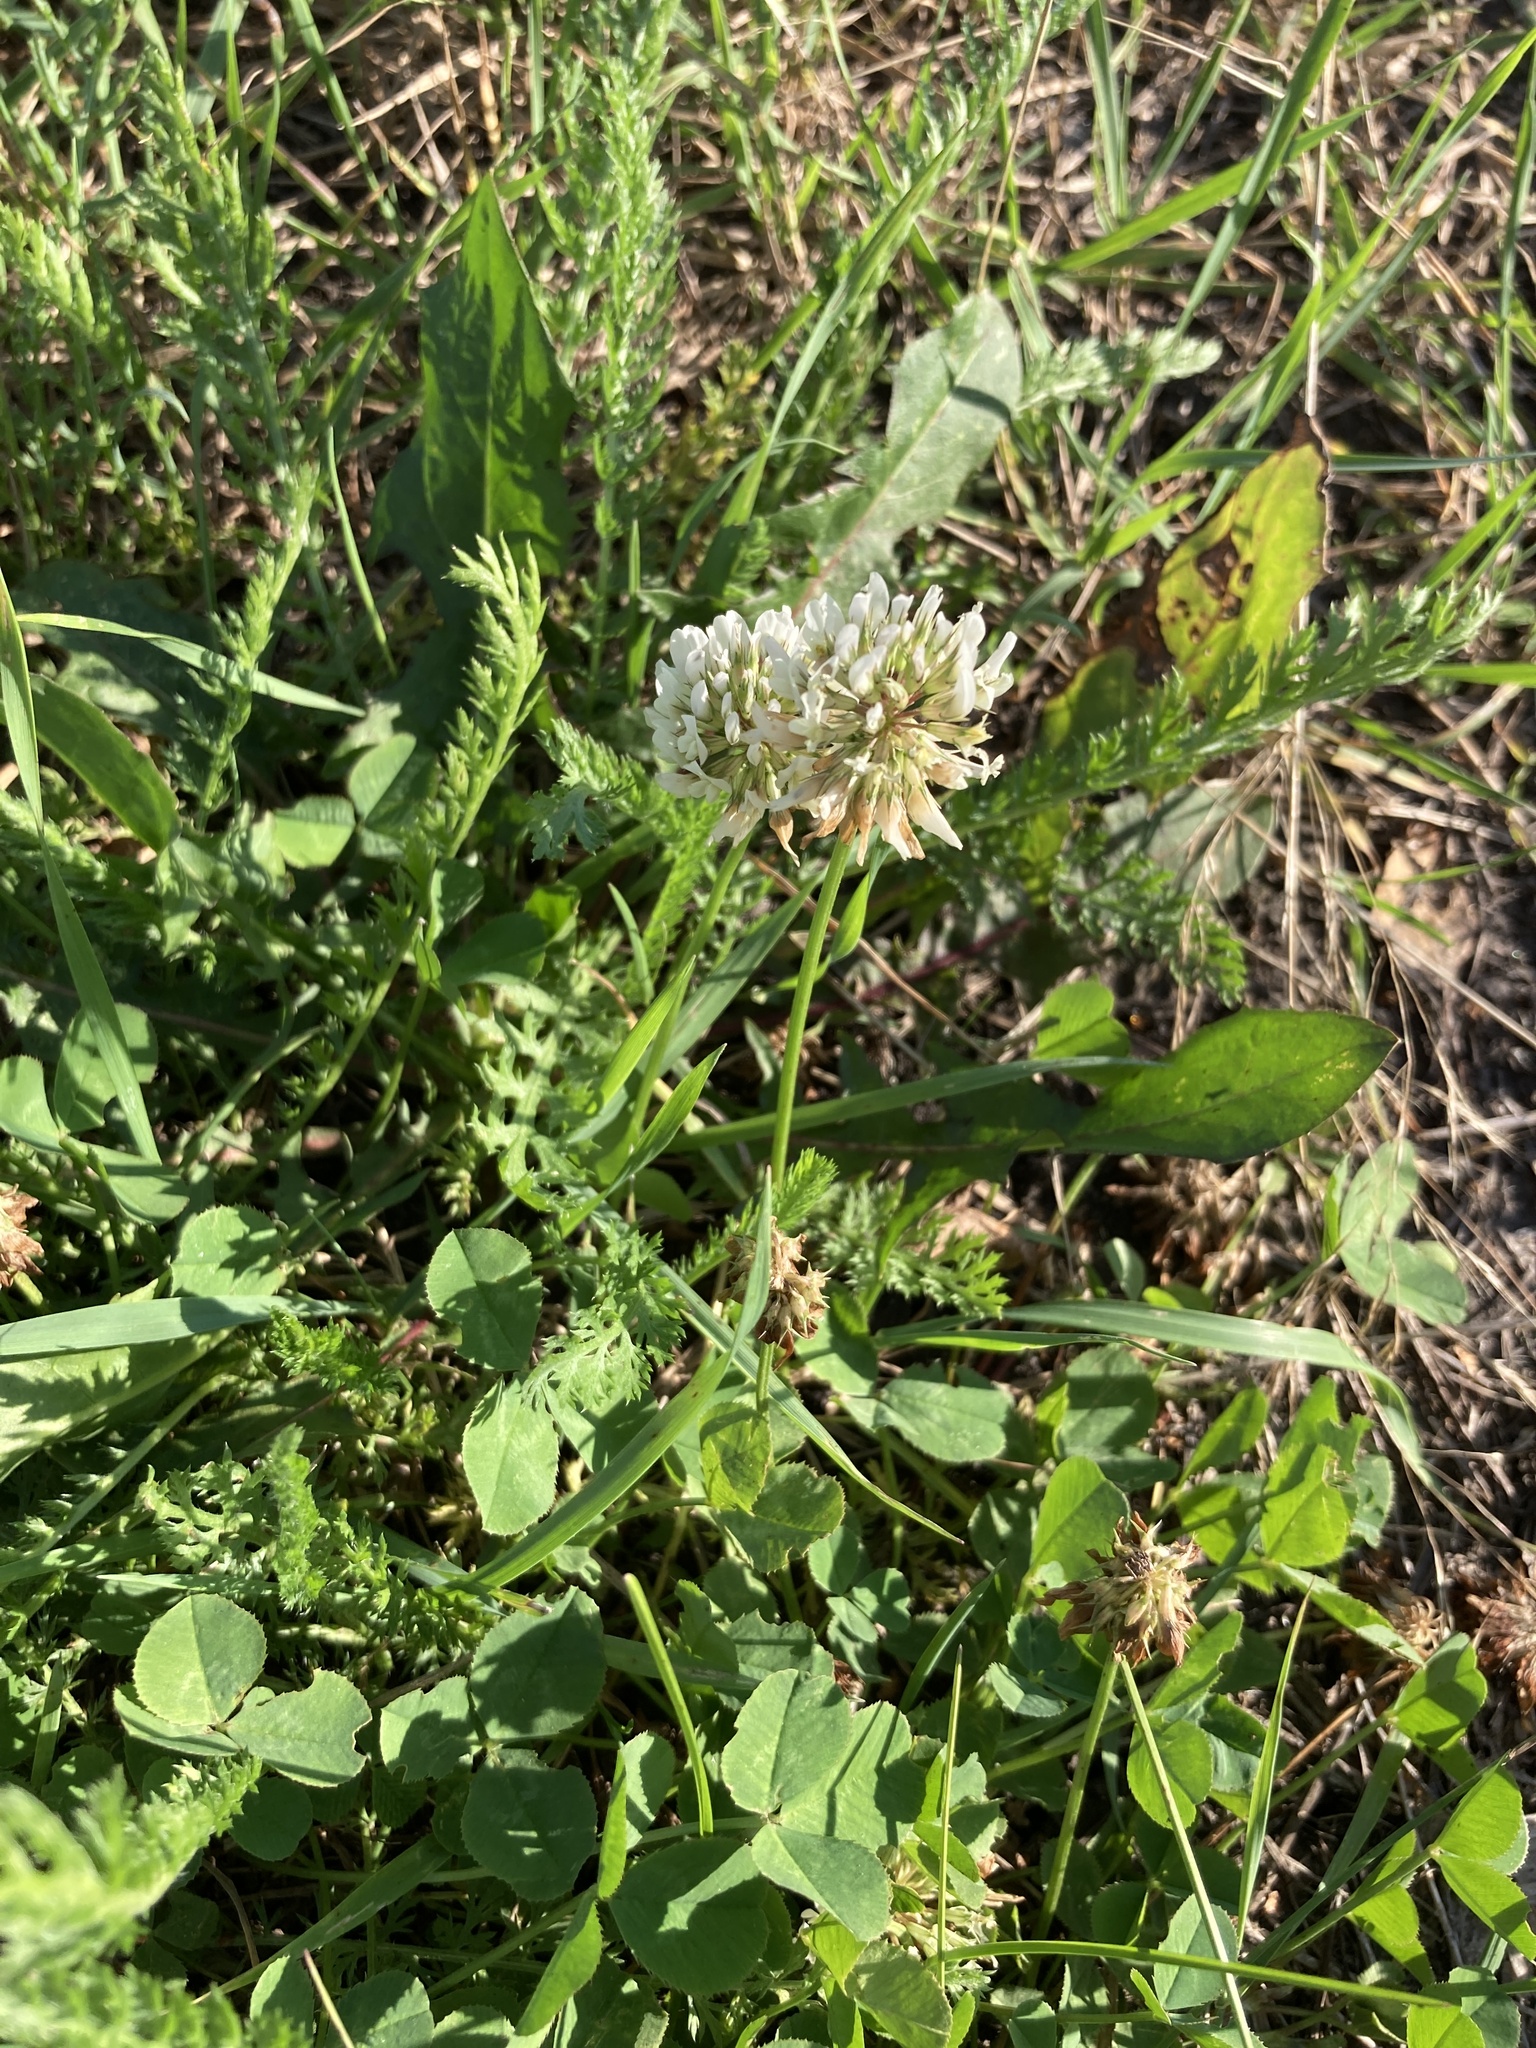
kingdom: Plantae
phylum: Tracheophyta
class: Magnoliopsida
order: Fabales
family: Fabaceae
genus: Trifolium
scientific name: Trifolium repens
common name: White clover
